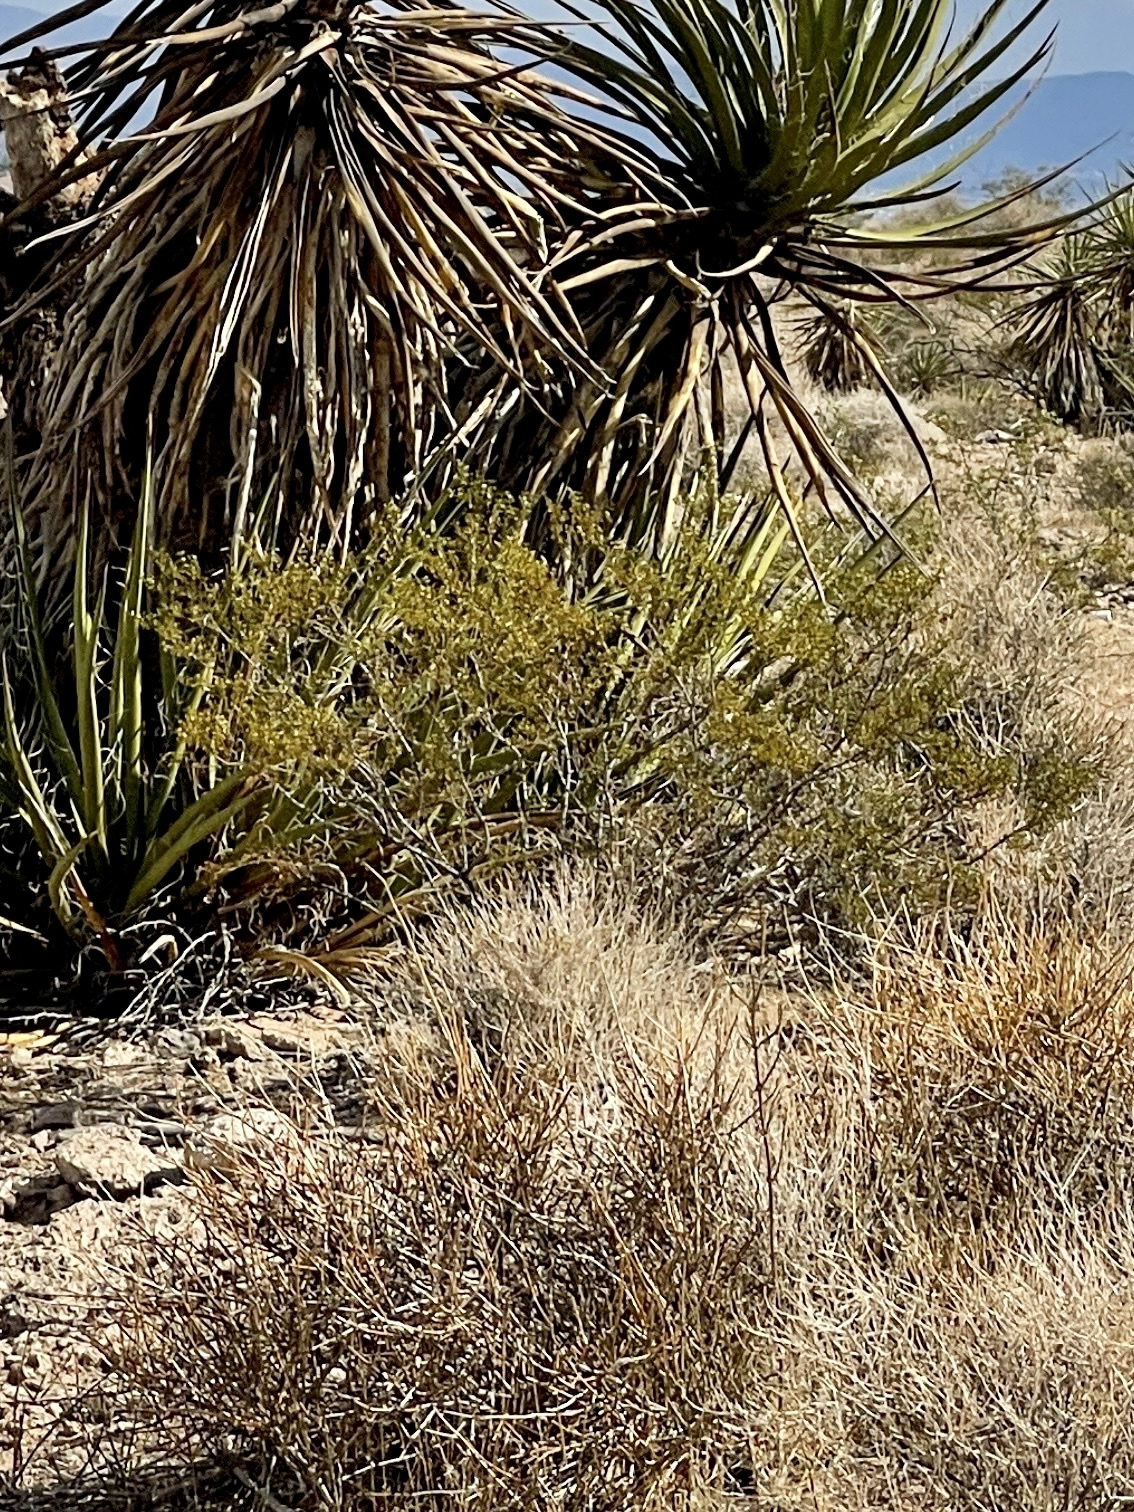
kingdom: Plantae
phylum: Tracheophyta
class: Magnoliopsida
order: Zygophyllales
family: Zygophyllaceae
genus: Larrea
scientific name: Larrea tridentata
